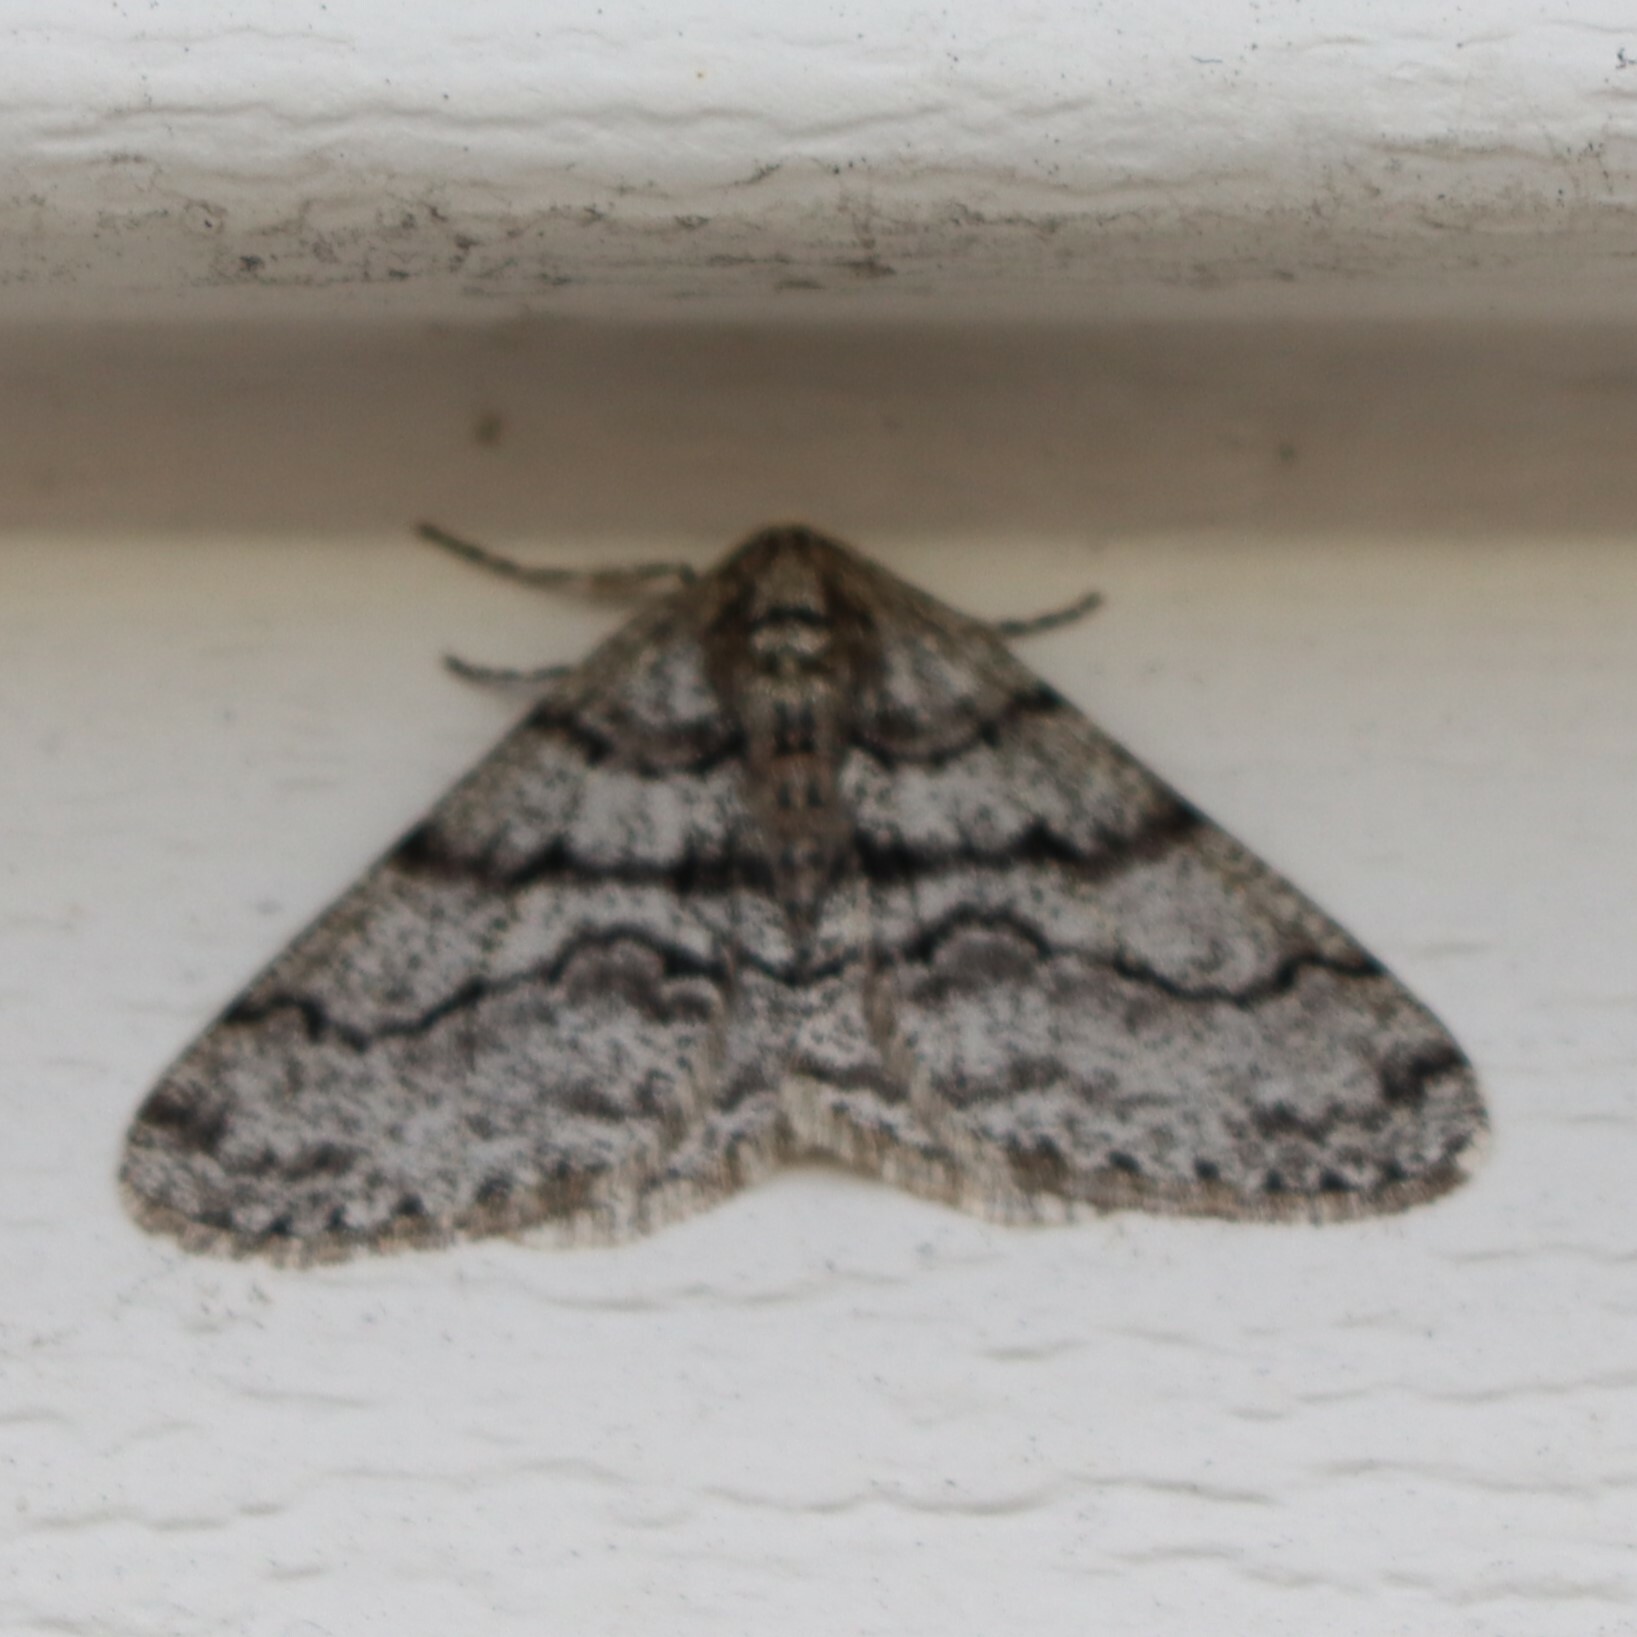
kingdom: Animalia
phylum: Arthropoda
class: Insecta
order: Lepidoptera
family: Geometridae
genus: Phigalia
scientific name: Phigalia titea
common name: Spiny looper
